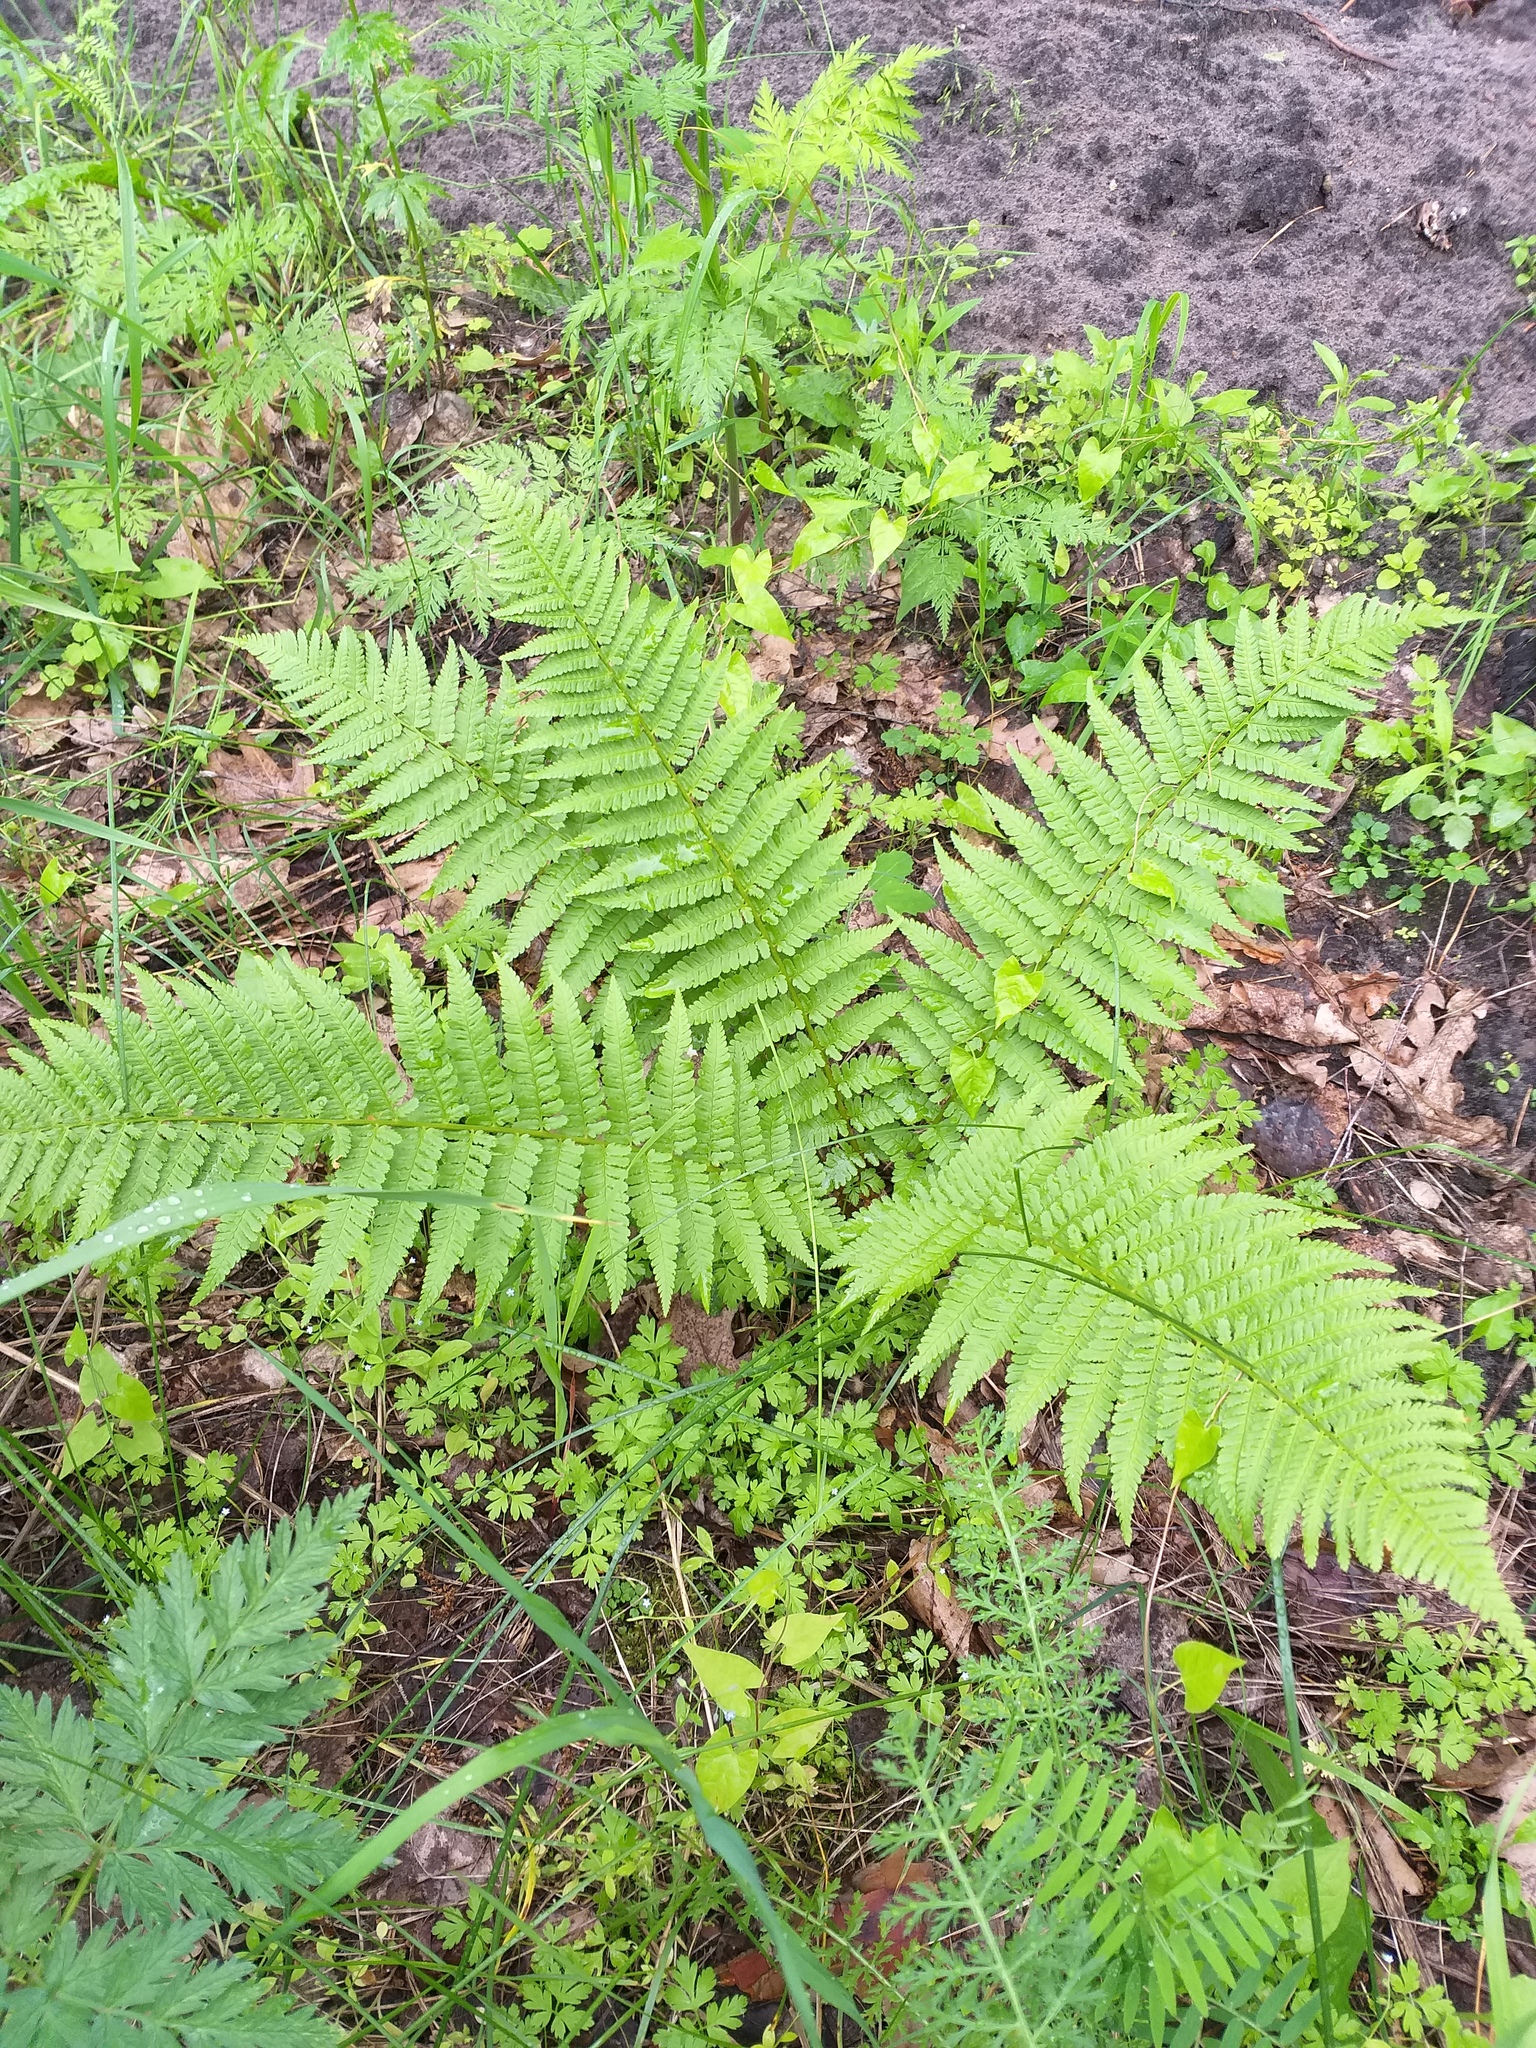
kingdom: Plantae
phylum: Tracheophyta
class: Polypodiopsida
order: Polypodiales
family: Dryopteridaceae
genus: Dryopteris
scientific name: Dryopteris filix-mas
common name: Male fern
